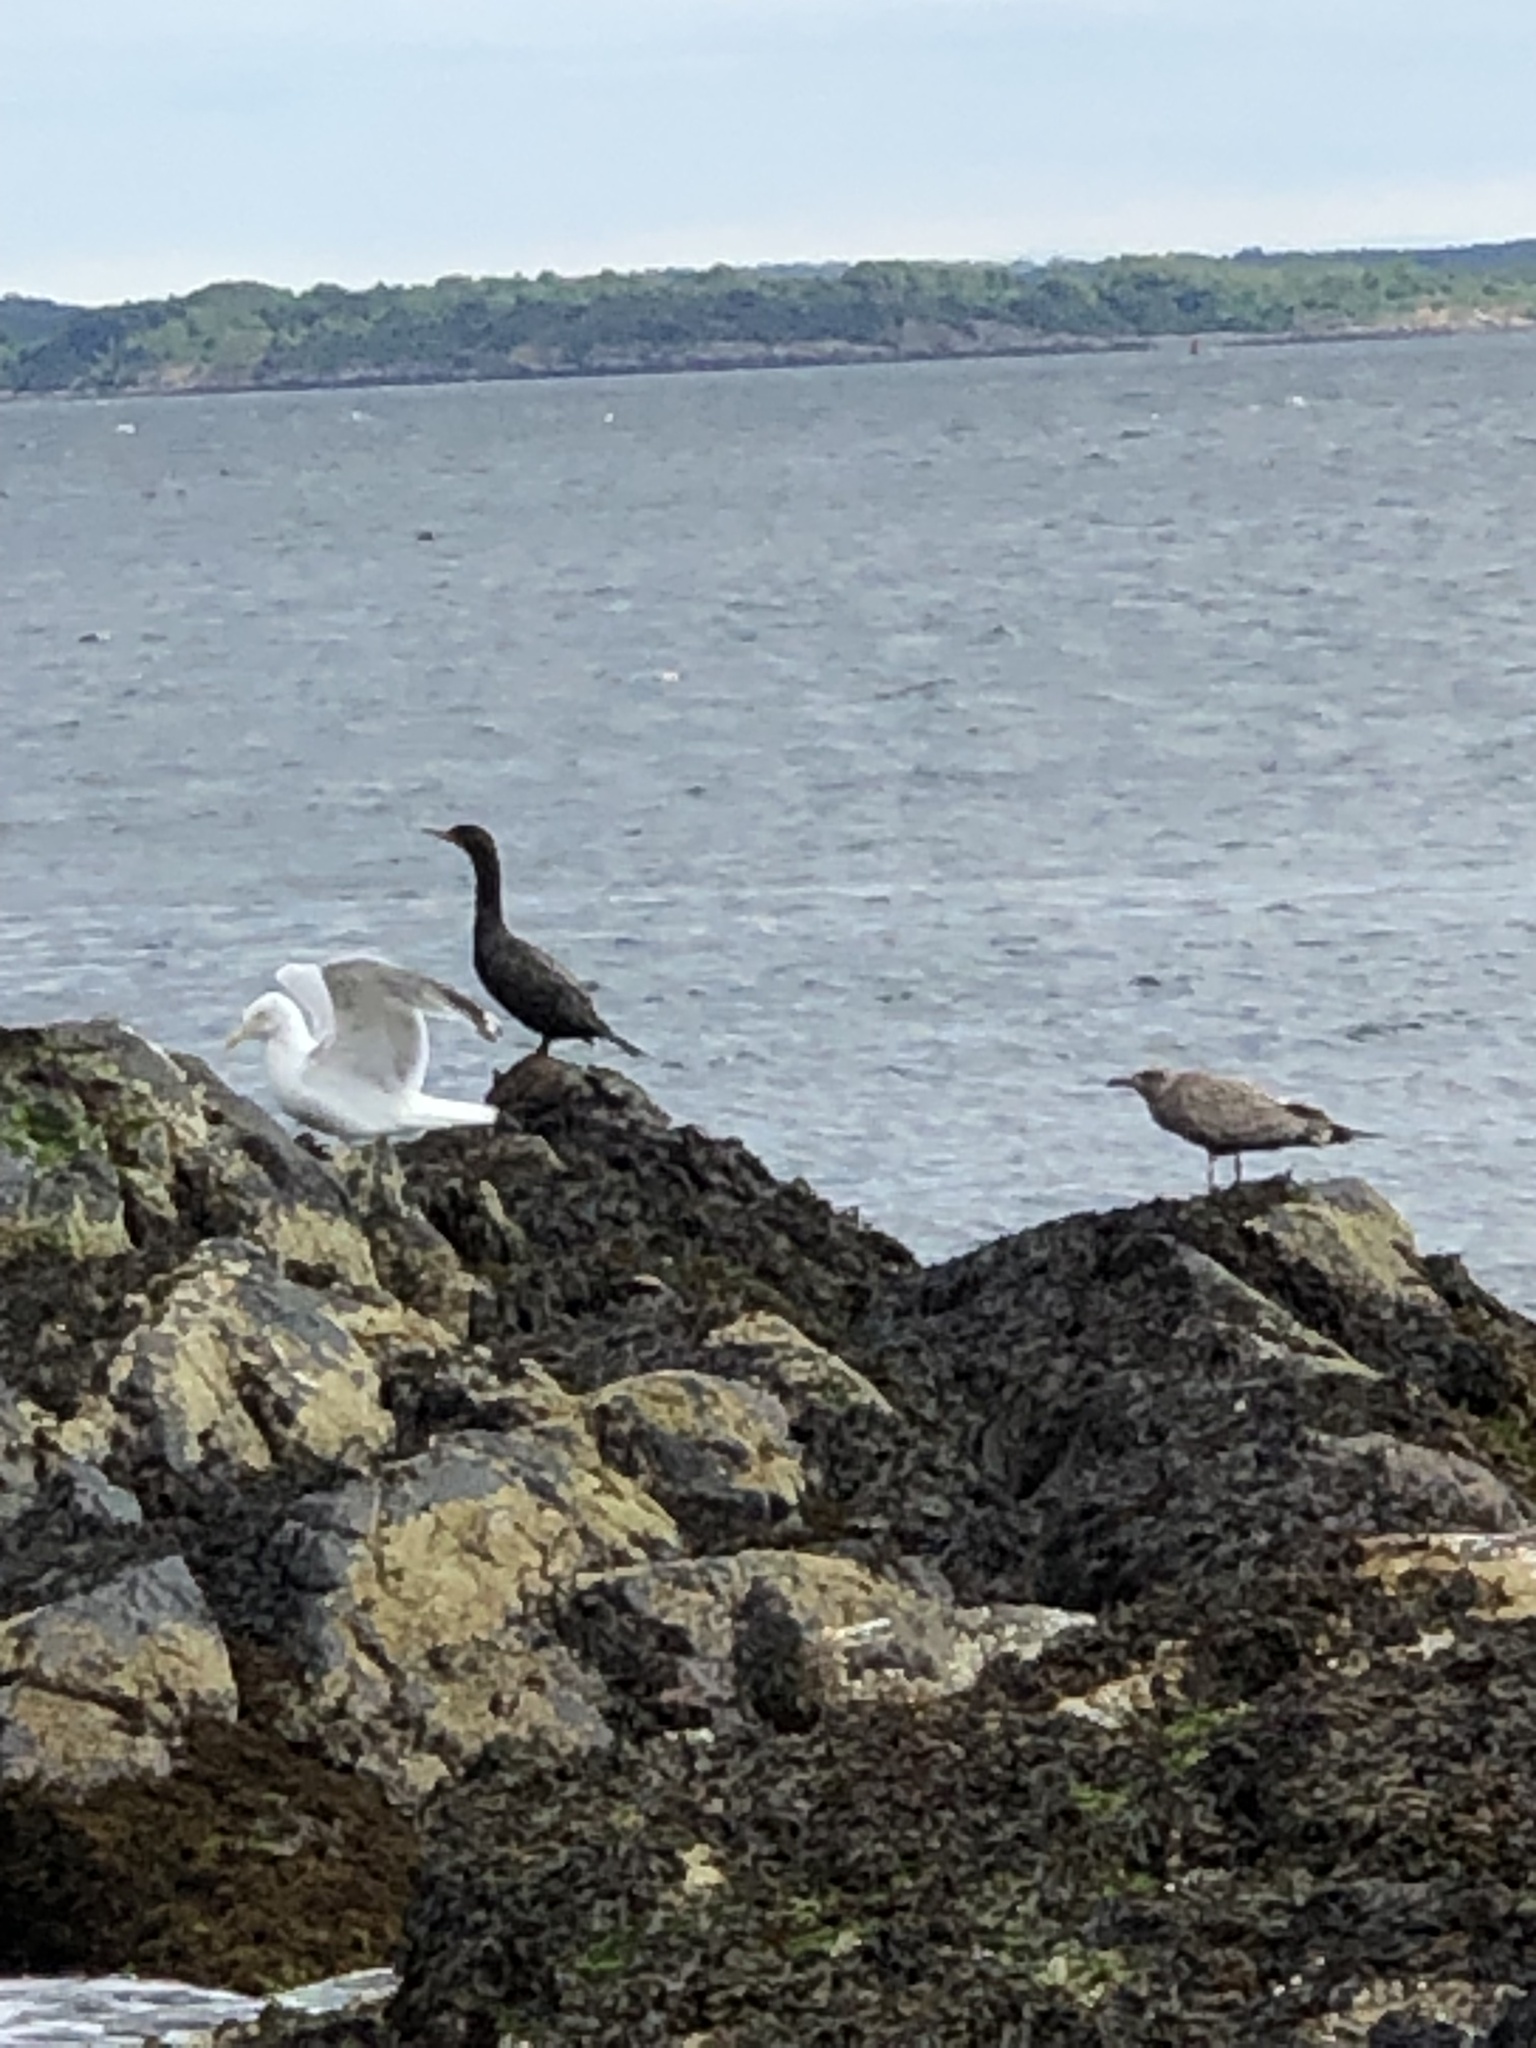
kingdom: Animalia
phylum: Chordata
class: Aves
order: Suliformes
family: Phalacrocoracidae
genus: Phalacrocorax
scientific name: Phalacrocorax auritus
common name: Double-crested cormorant
